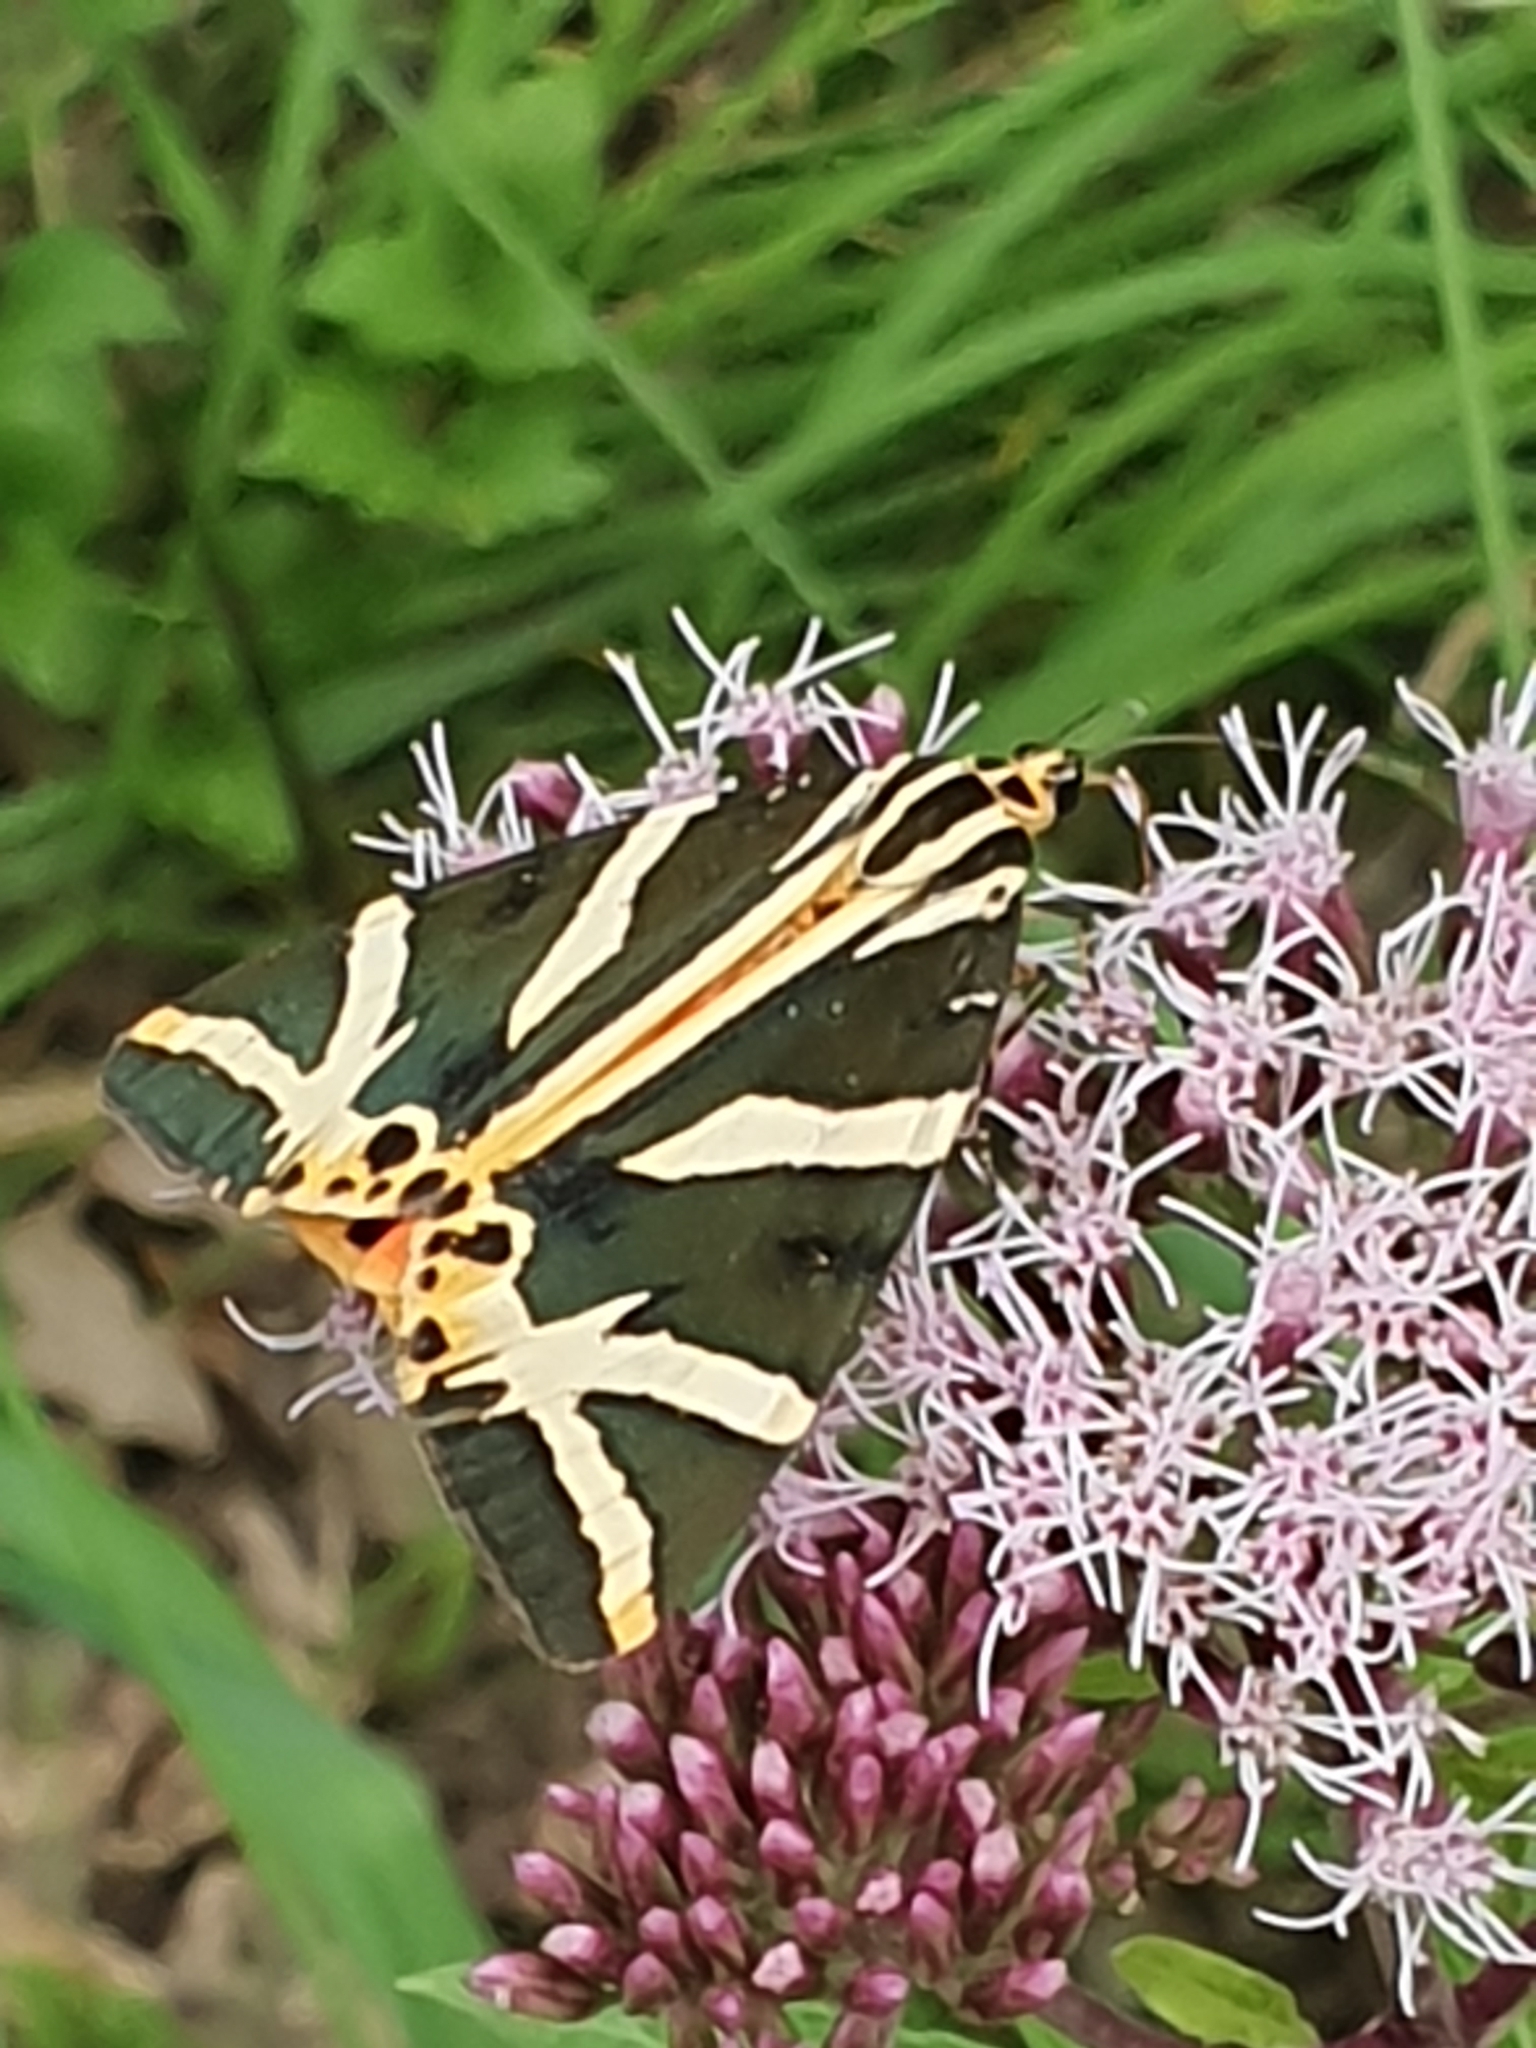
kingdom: Animalia
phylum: Arthropoda
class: Insecta
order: Lepidoptera
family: Erebidae
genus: Euplagia
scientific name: Euplagia quadripunctaria
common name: Jersey tiger
